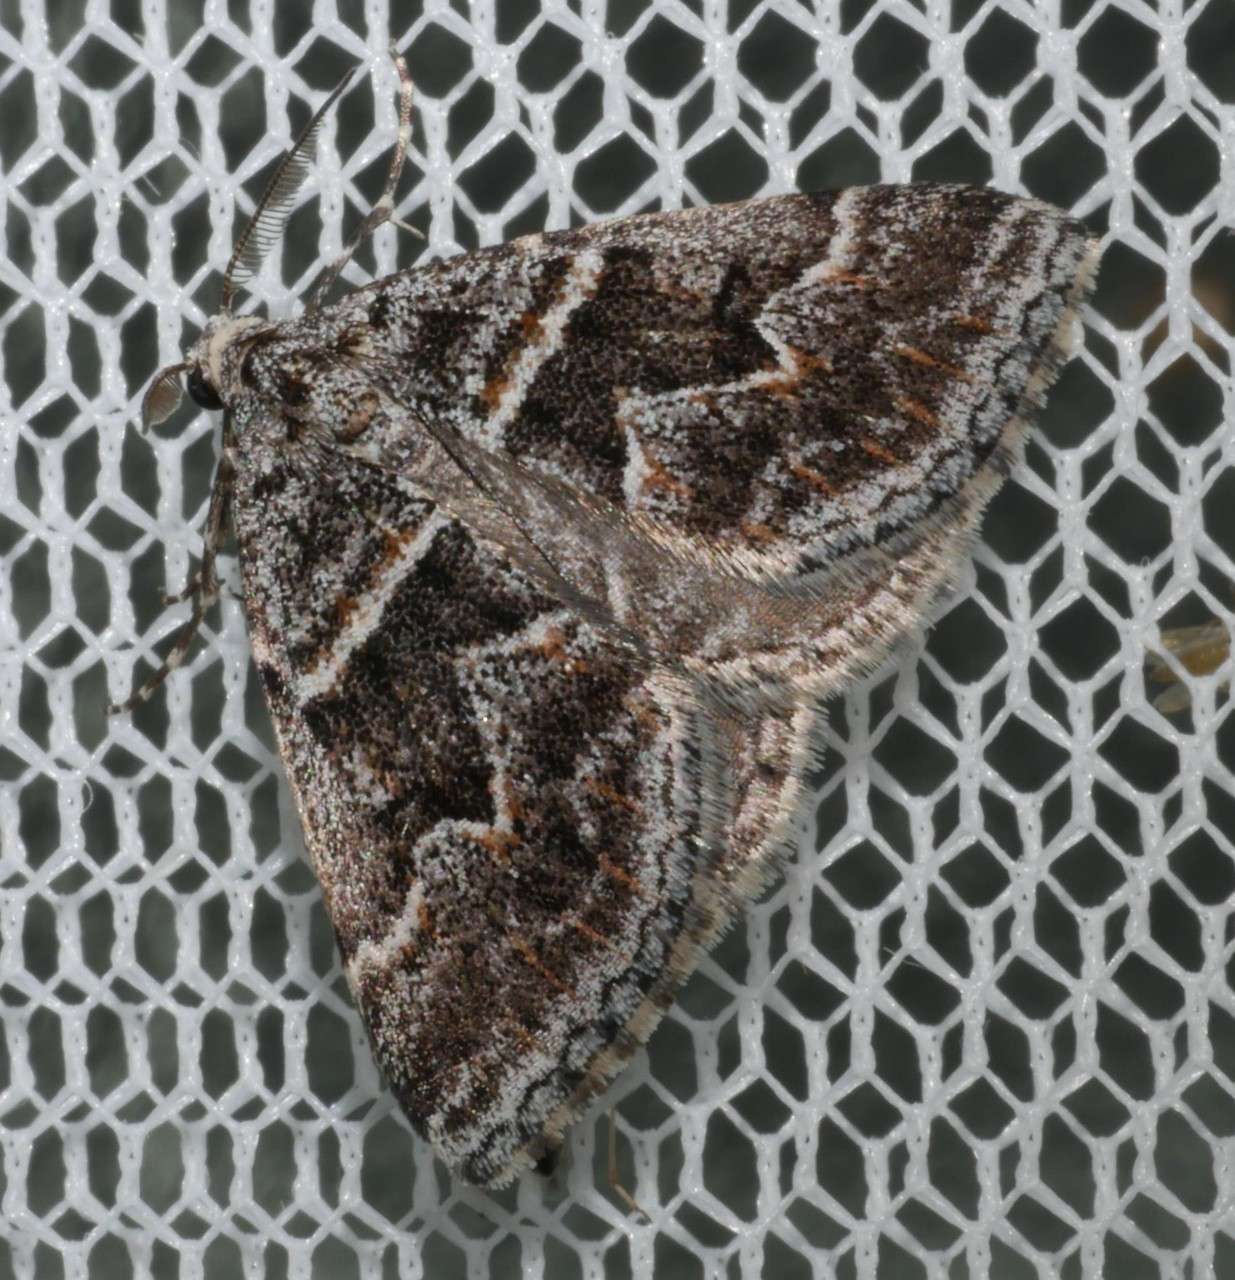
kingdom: Animalia
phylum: Arthropoda
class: Insecta
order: Lepidoptera
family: Geometridae
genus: Dichromodes
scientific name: Dichromodes explanata
